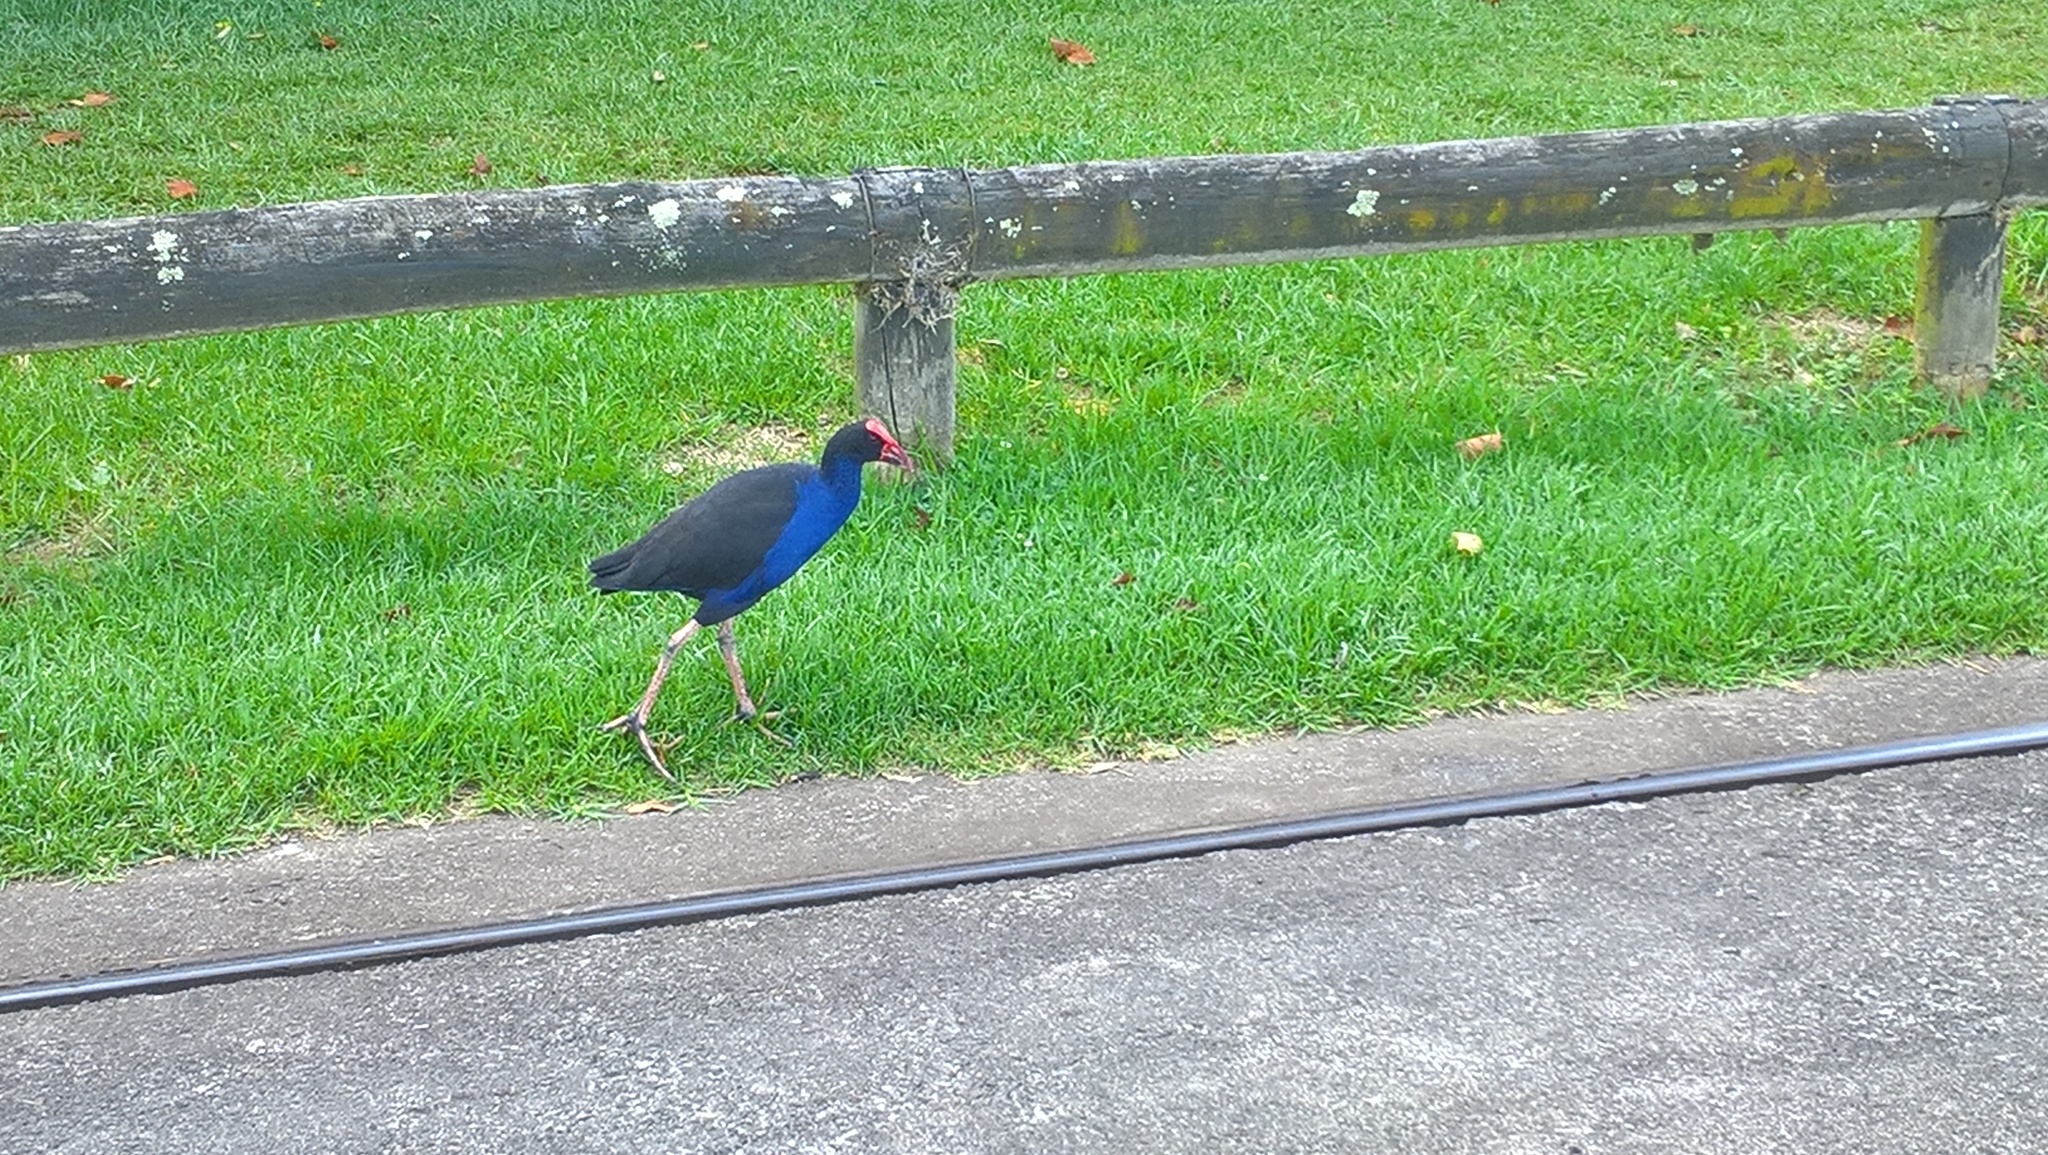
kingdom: Animalia
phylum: Chordata
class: Aves
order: Gruiformes
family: Rallidae
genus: Porphyrio
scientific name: Porphyrio melanotus
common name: Australasian swamphen
